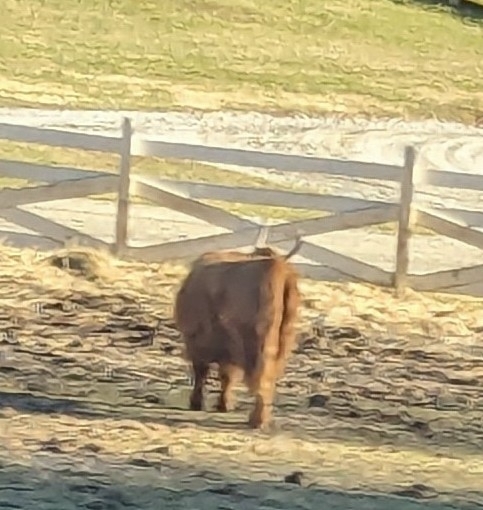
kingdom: Animalia
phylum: Chordata
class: Mammalia
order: Artiodactyla
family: Bovidae
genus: Bos
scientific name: Bos taurus
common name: Domesticated cattle
